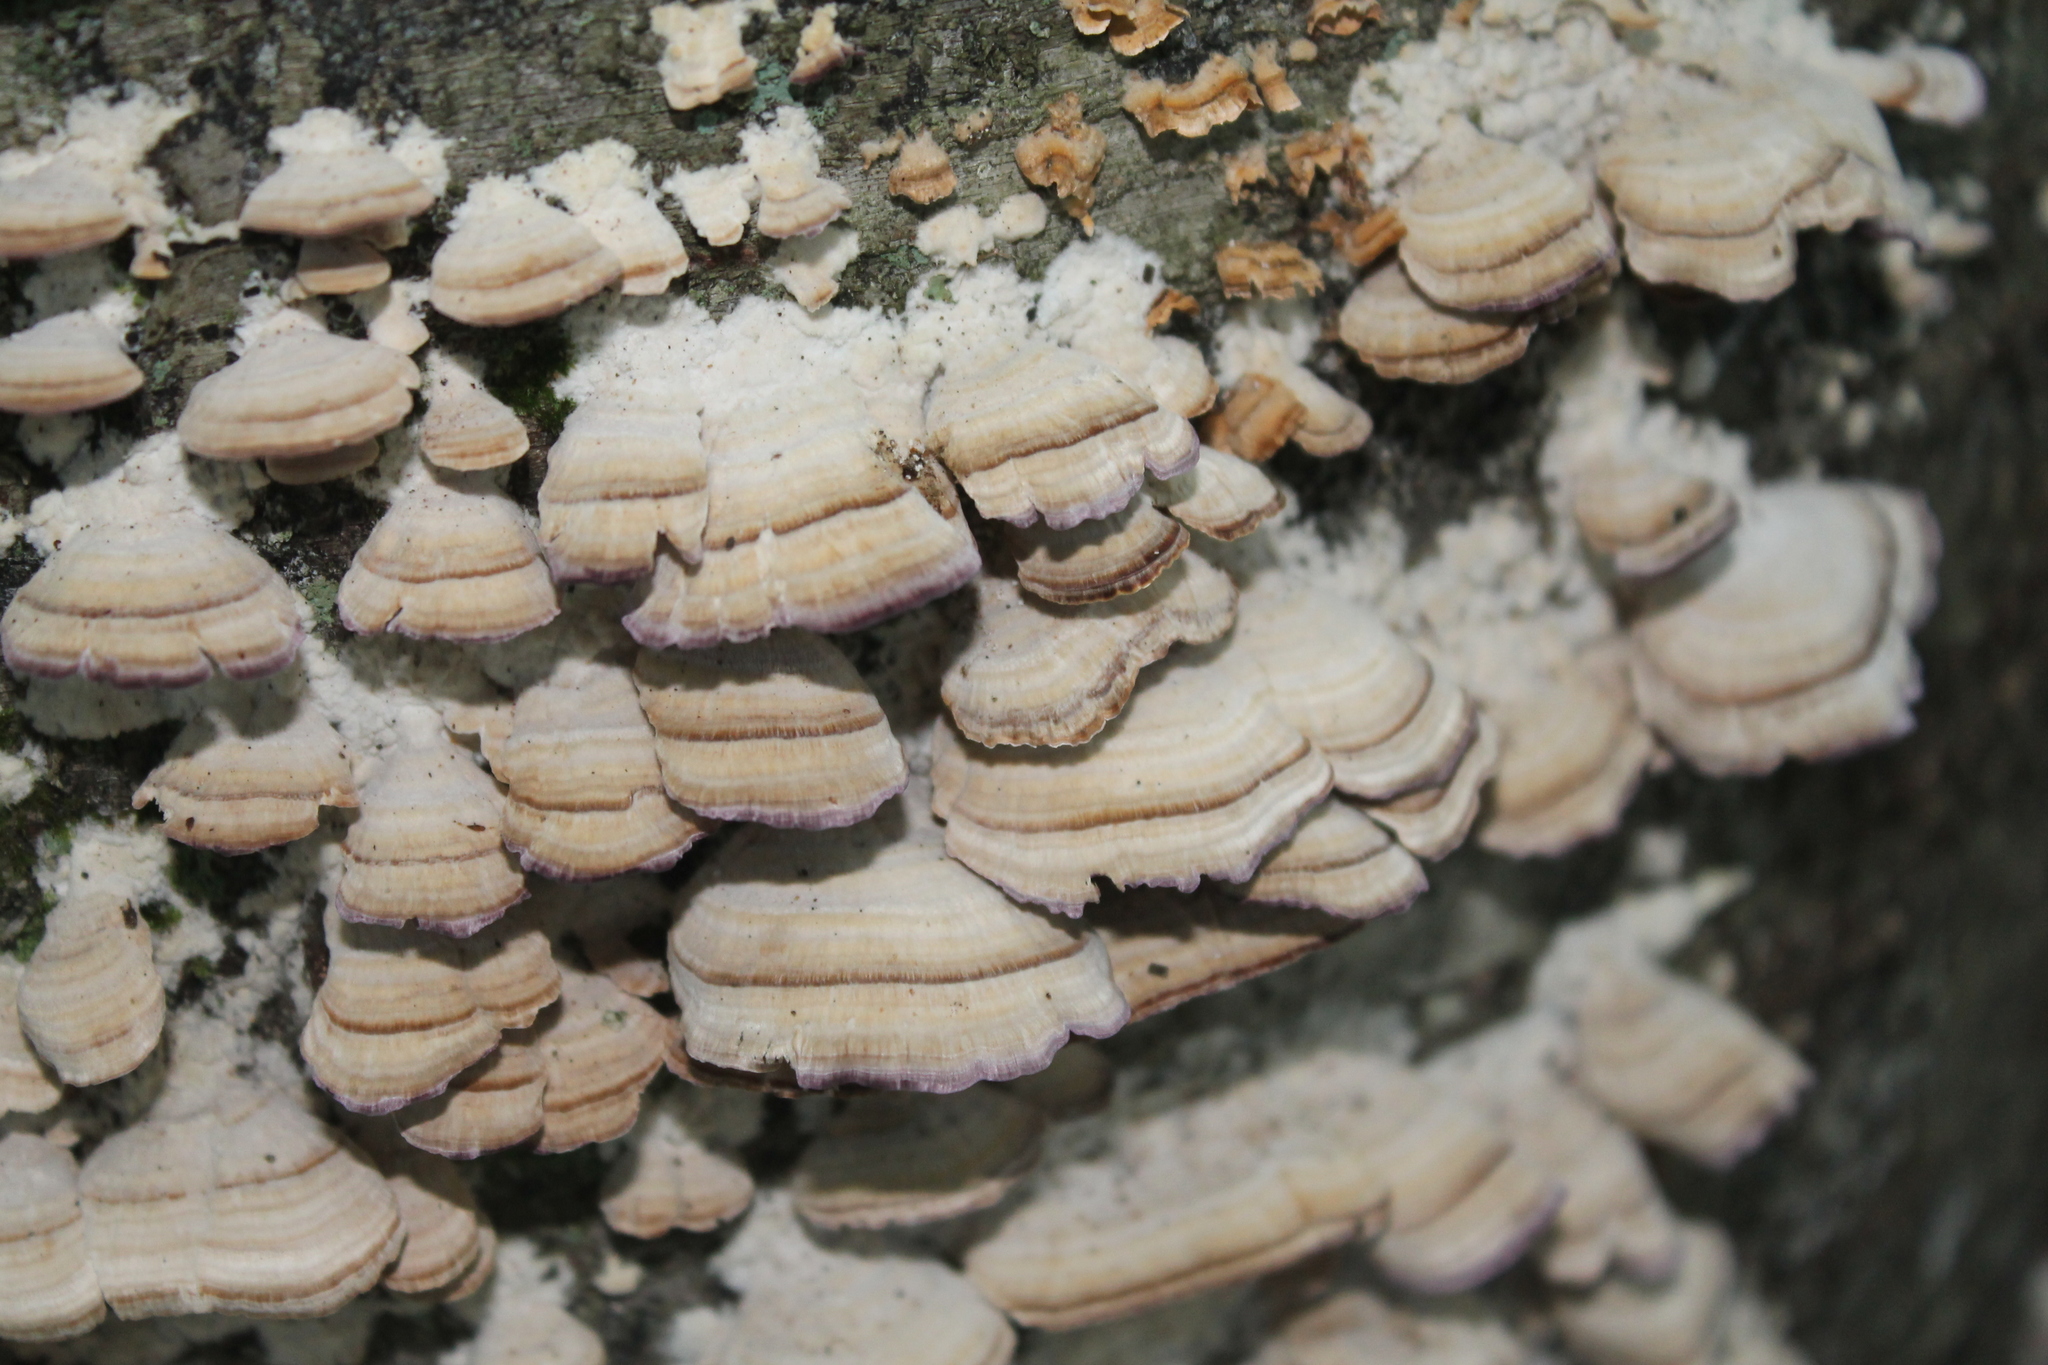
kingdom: Fungi
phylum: Basidiomycota
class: Agaricomycetes
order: Hymenochaetales
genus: Trichaptum
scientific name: Trichaptum biforme
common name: Violet-toothed polypore
